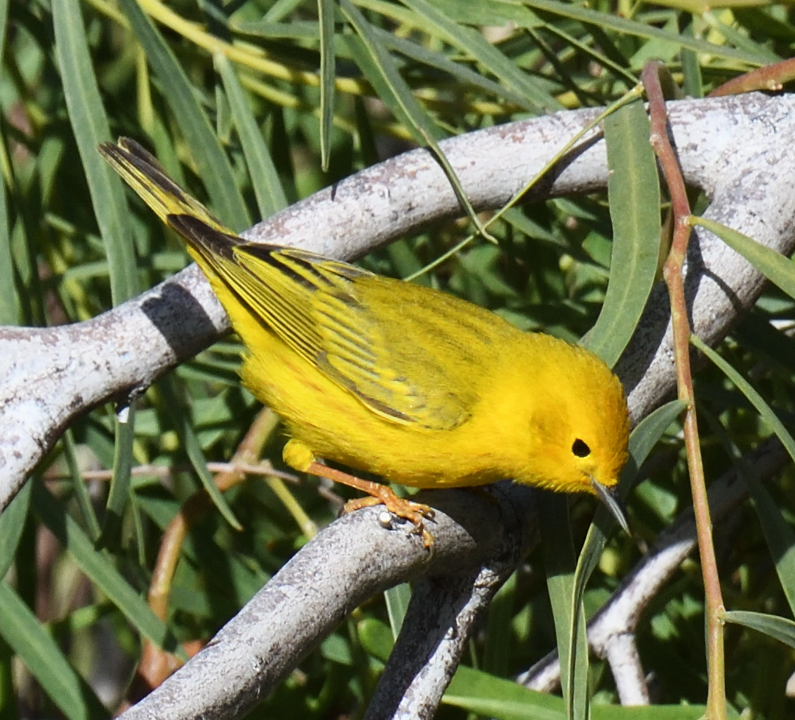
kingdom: Animalia
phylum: Chordata
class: Aves
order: Passeriformes
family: Parulidae
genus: Setophaga
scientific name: Setophaga petechia
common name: Yellow warbler
